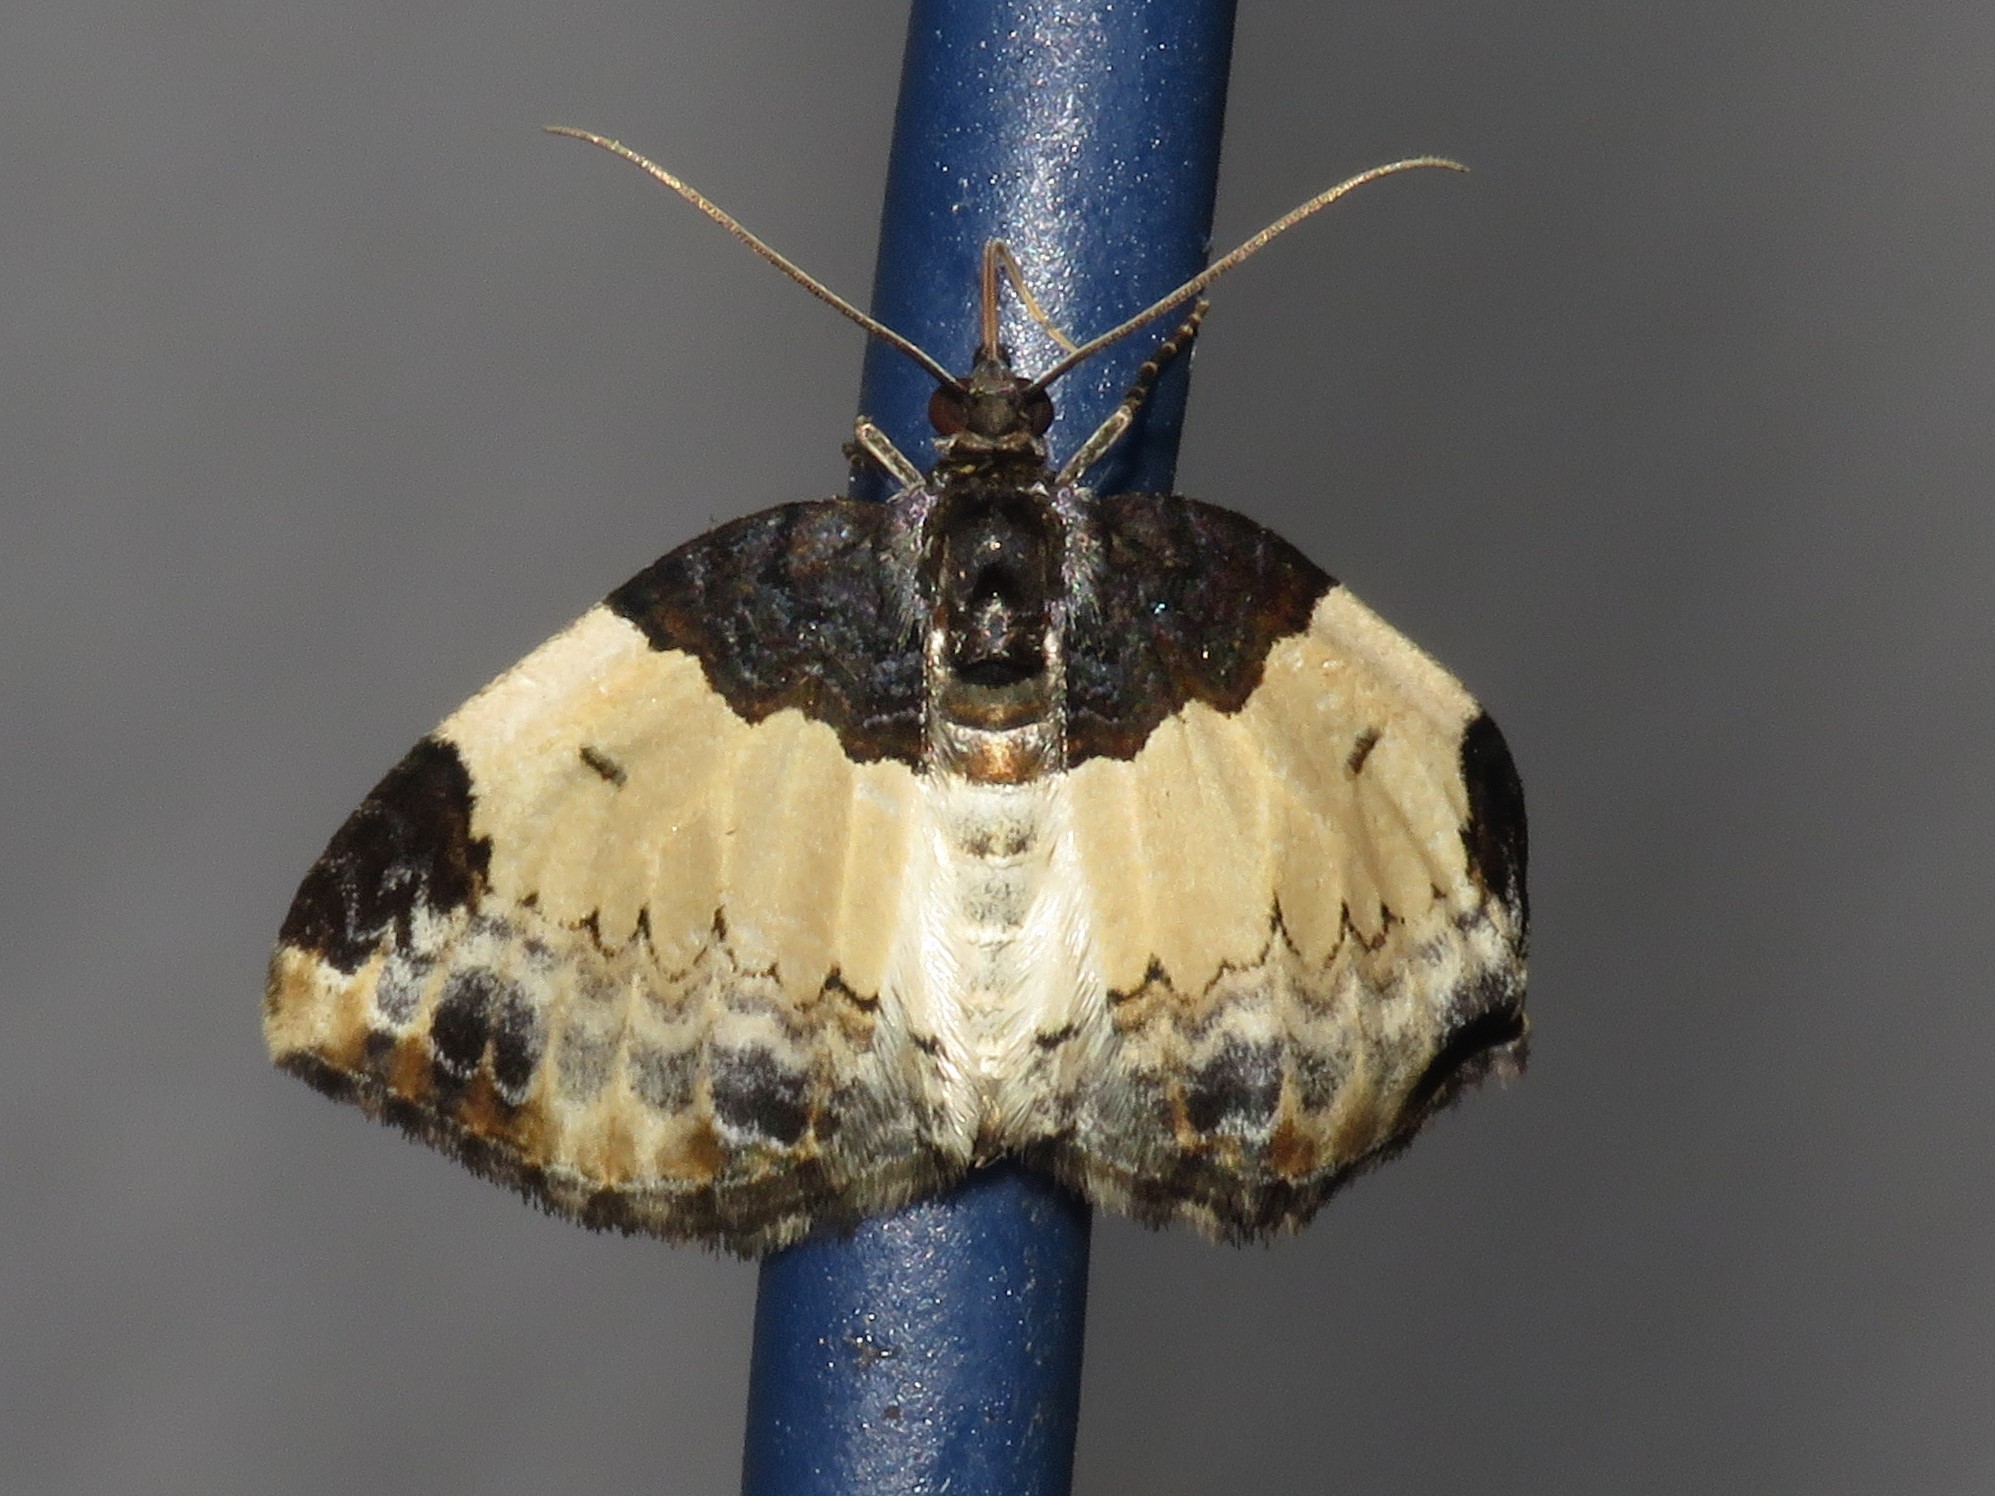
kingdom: Animalia
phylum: Arthropoda
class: Insecta
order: Lepidoptera
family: Geometridae
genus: Mesoleuca
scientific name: Mesoleuca ruficillata
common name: White-ribboned carpet moth
